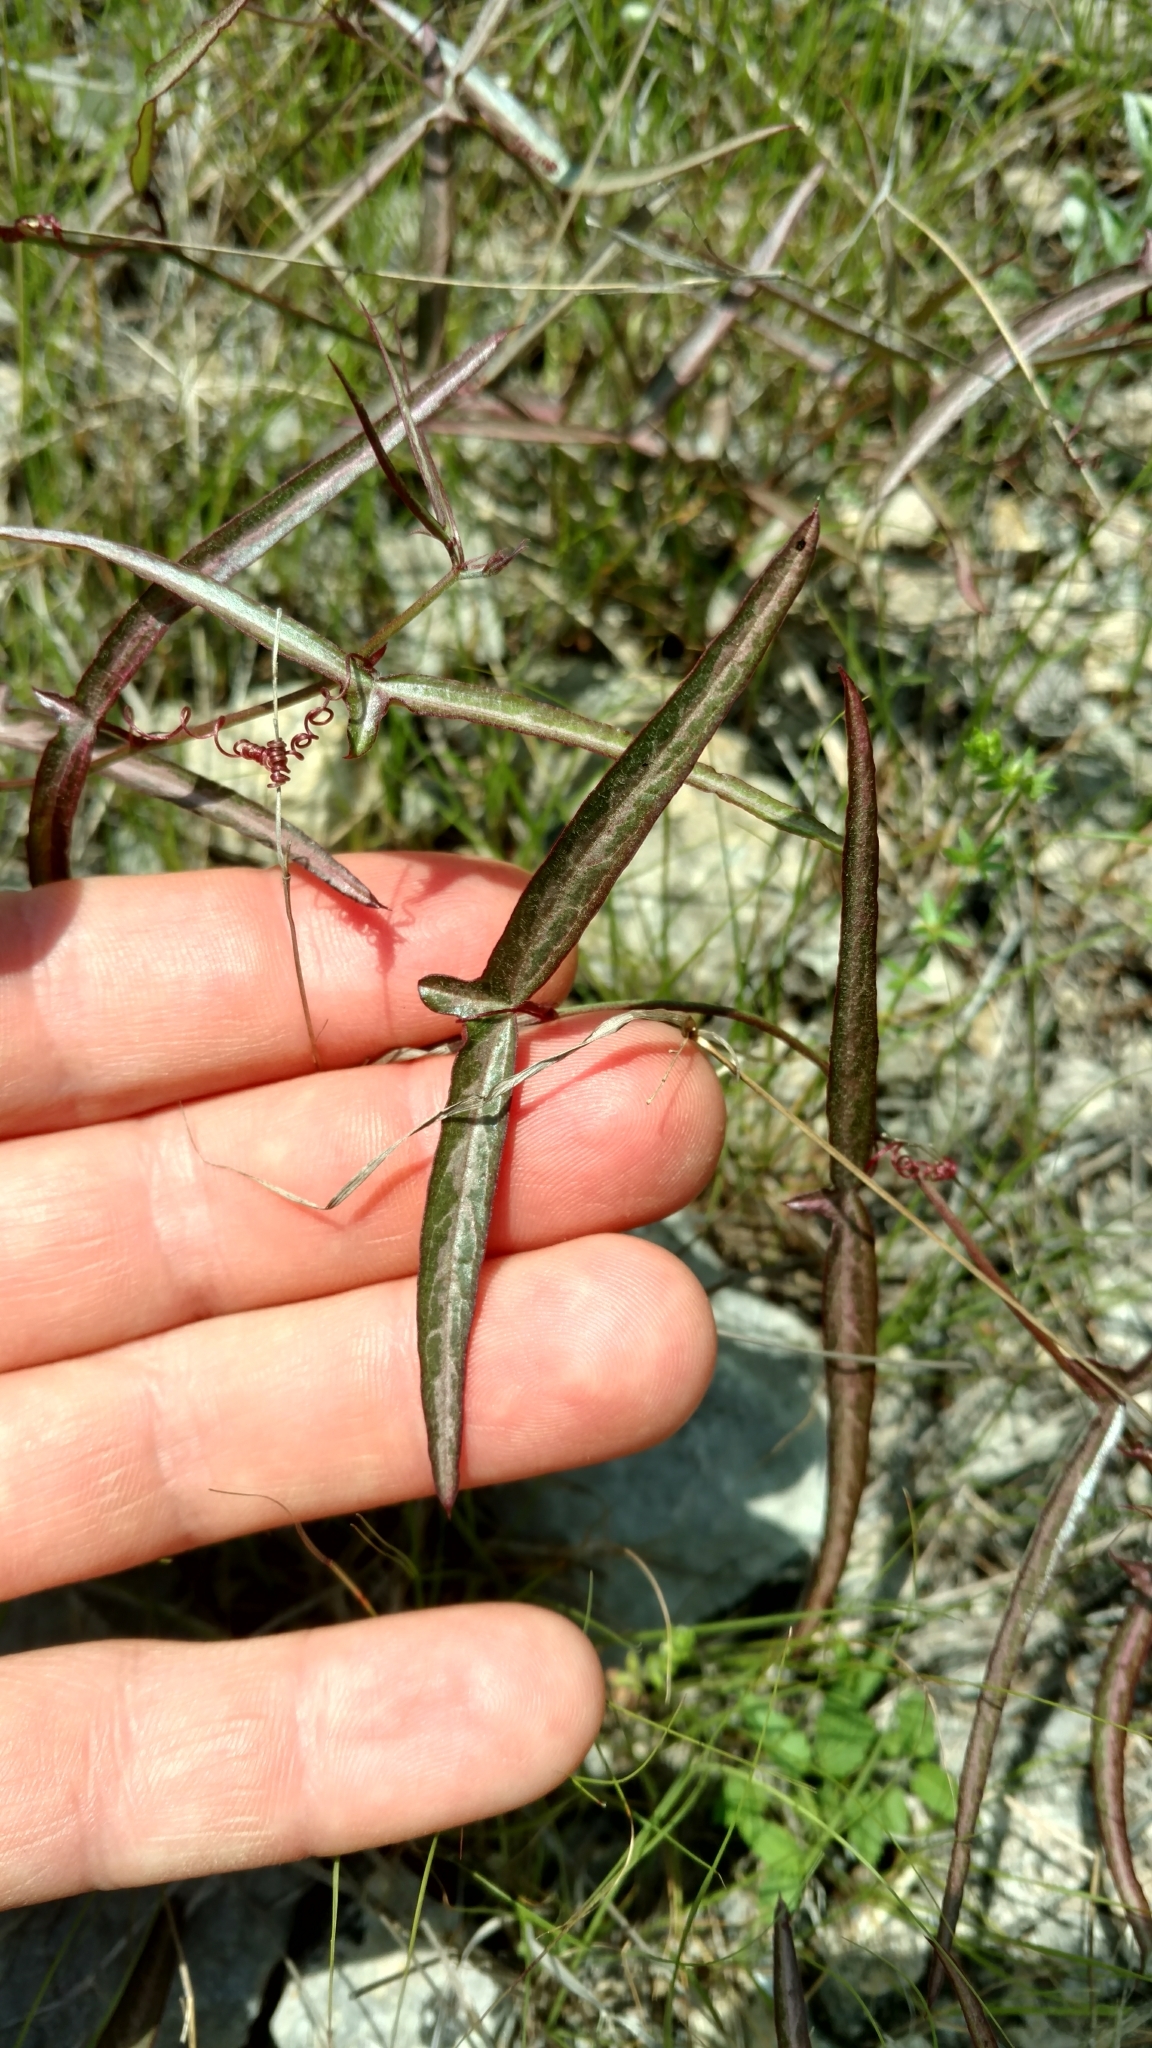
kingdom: Plantae
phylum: Tracheophyta
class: Magnoliopsida
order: Malpighiales
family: Passifloraceae
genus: Passiflora
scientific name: Passiflora tenuiloba
